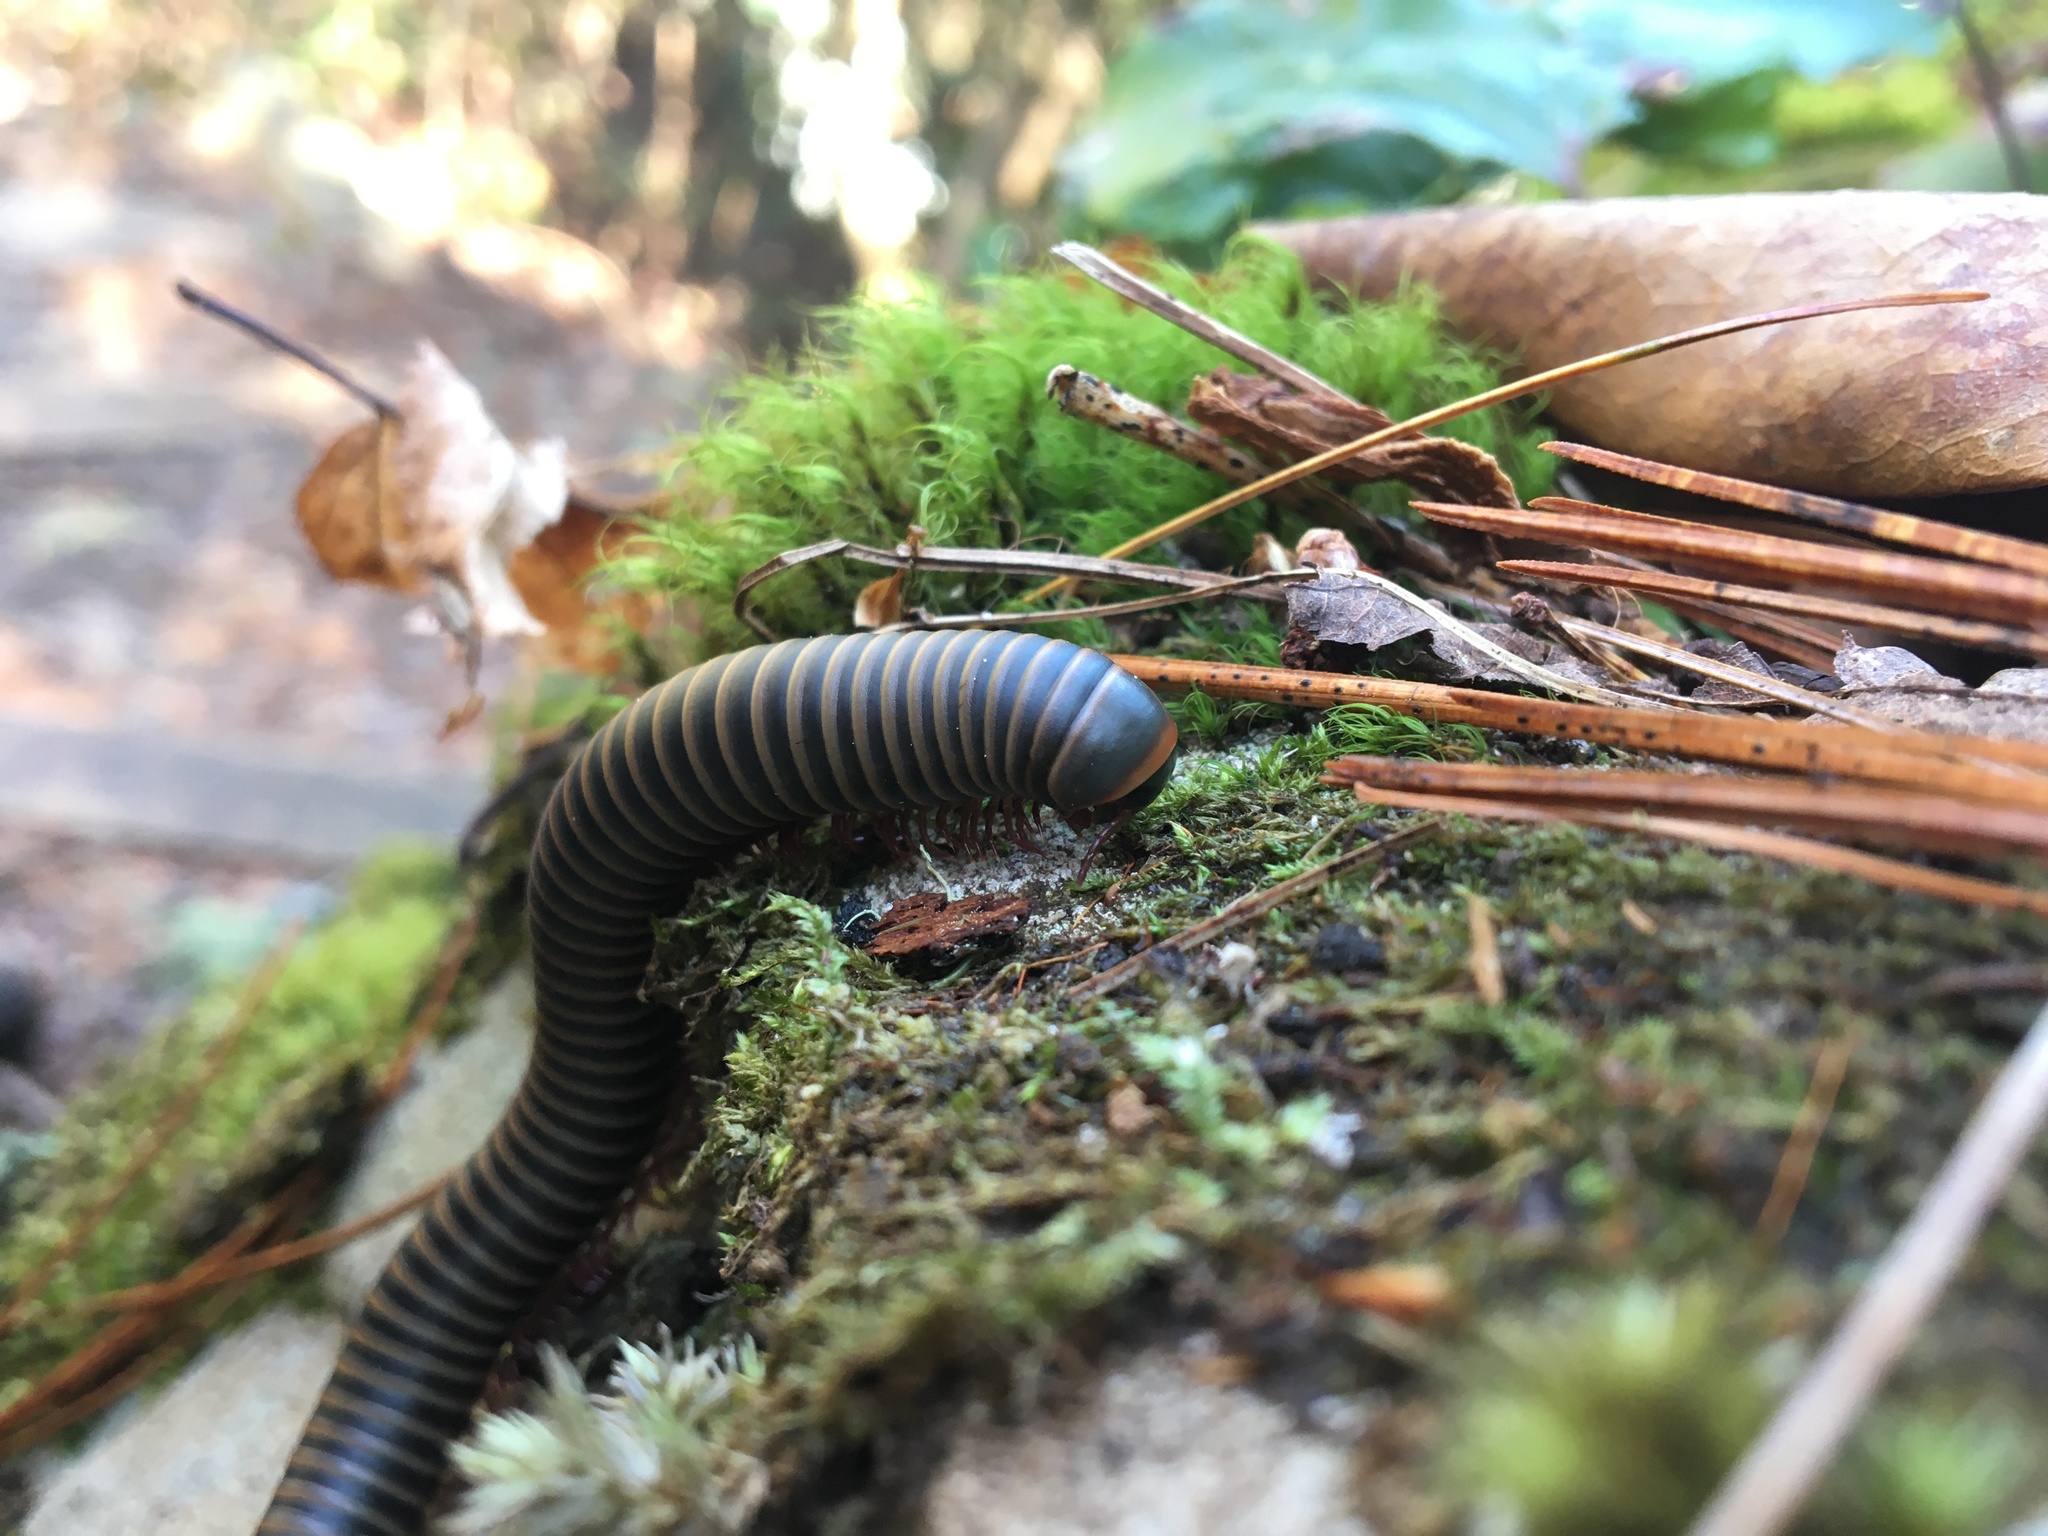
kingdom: Animalia
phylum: Arthropoda
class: Diplopoda
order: Spirobolida
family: Spirobolidae
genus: Narceus
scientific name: Narceus
